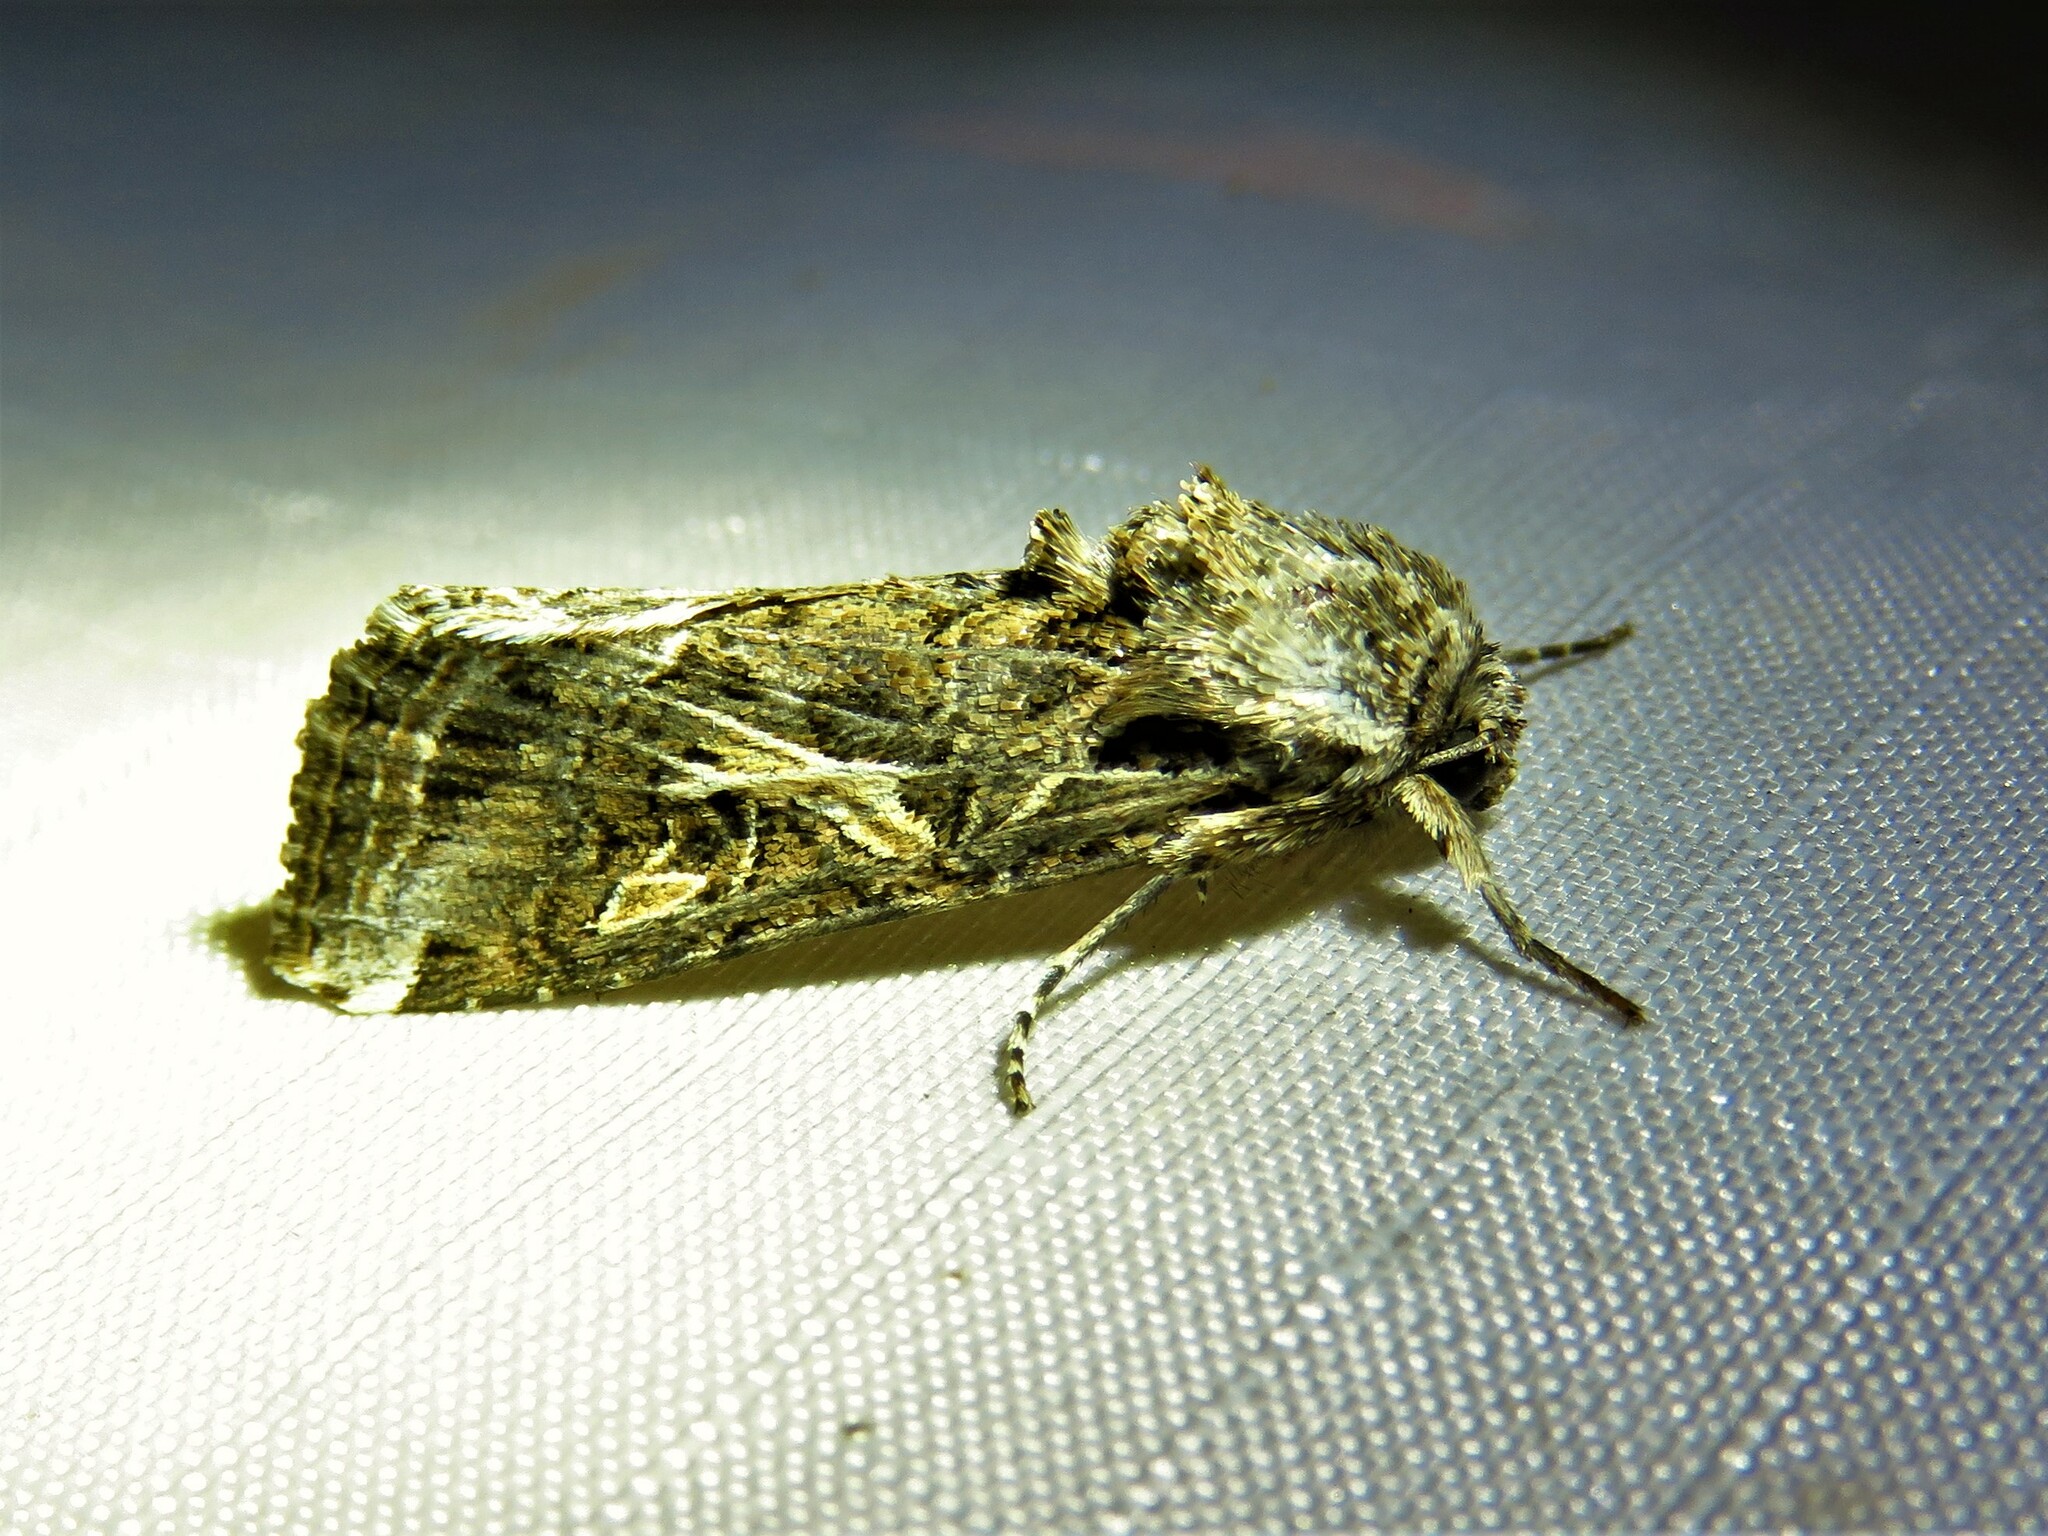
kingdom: Animalia
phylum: Arthropoda
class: Insecta
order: Lepidoptera
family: Noctuidae
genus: Spodoptera
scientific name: Spodoptera ornithogalli
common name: Yellow-striped armyworm
